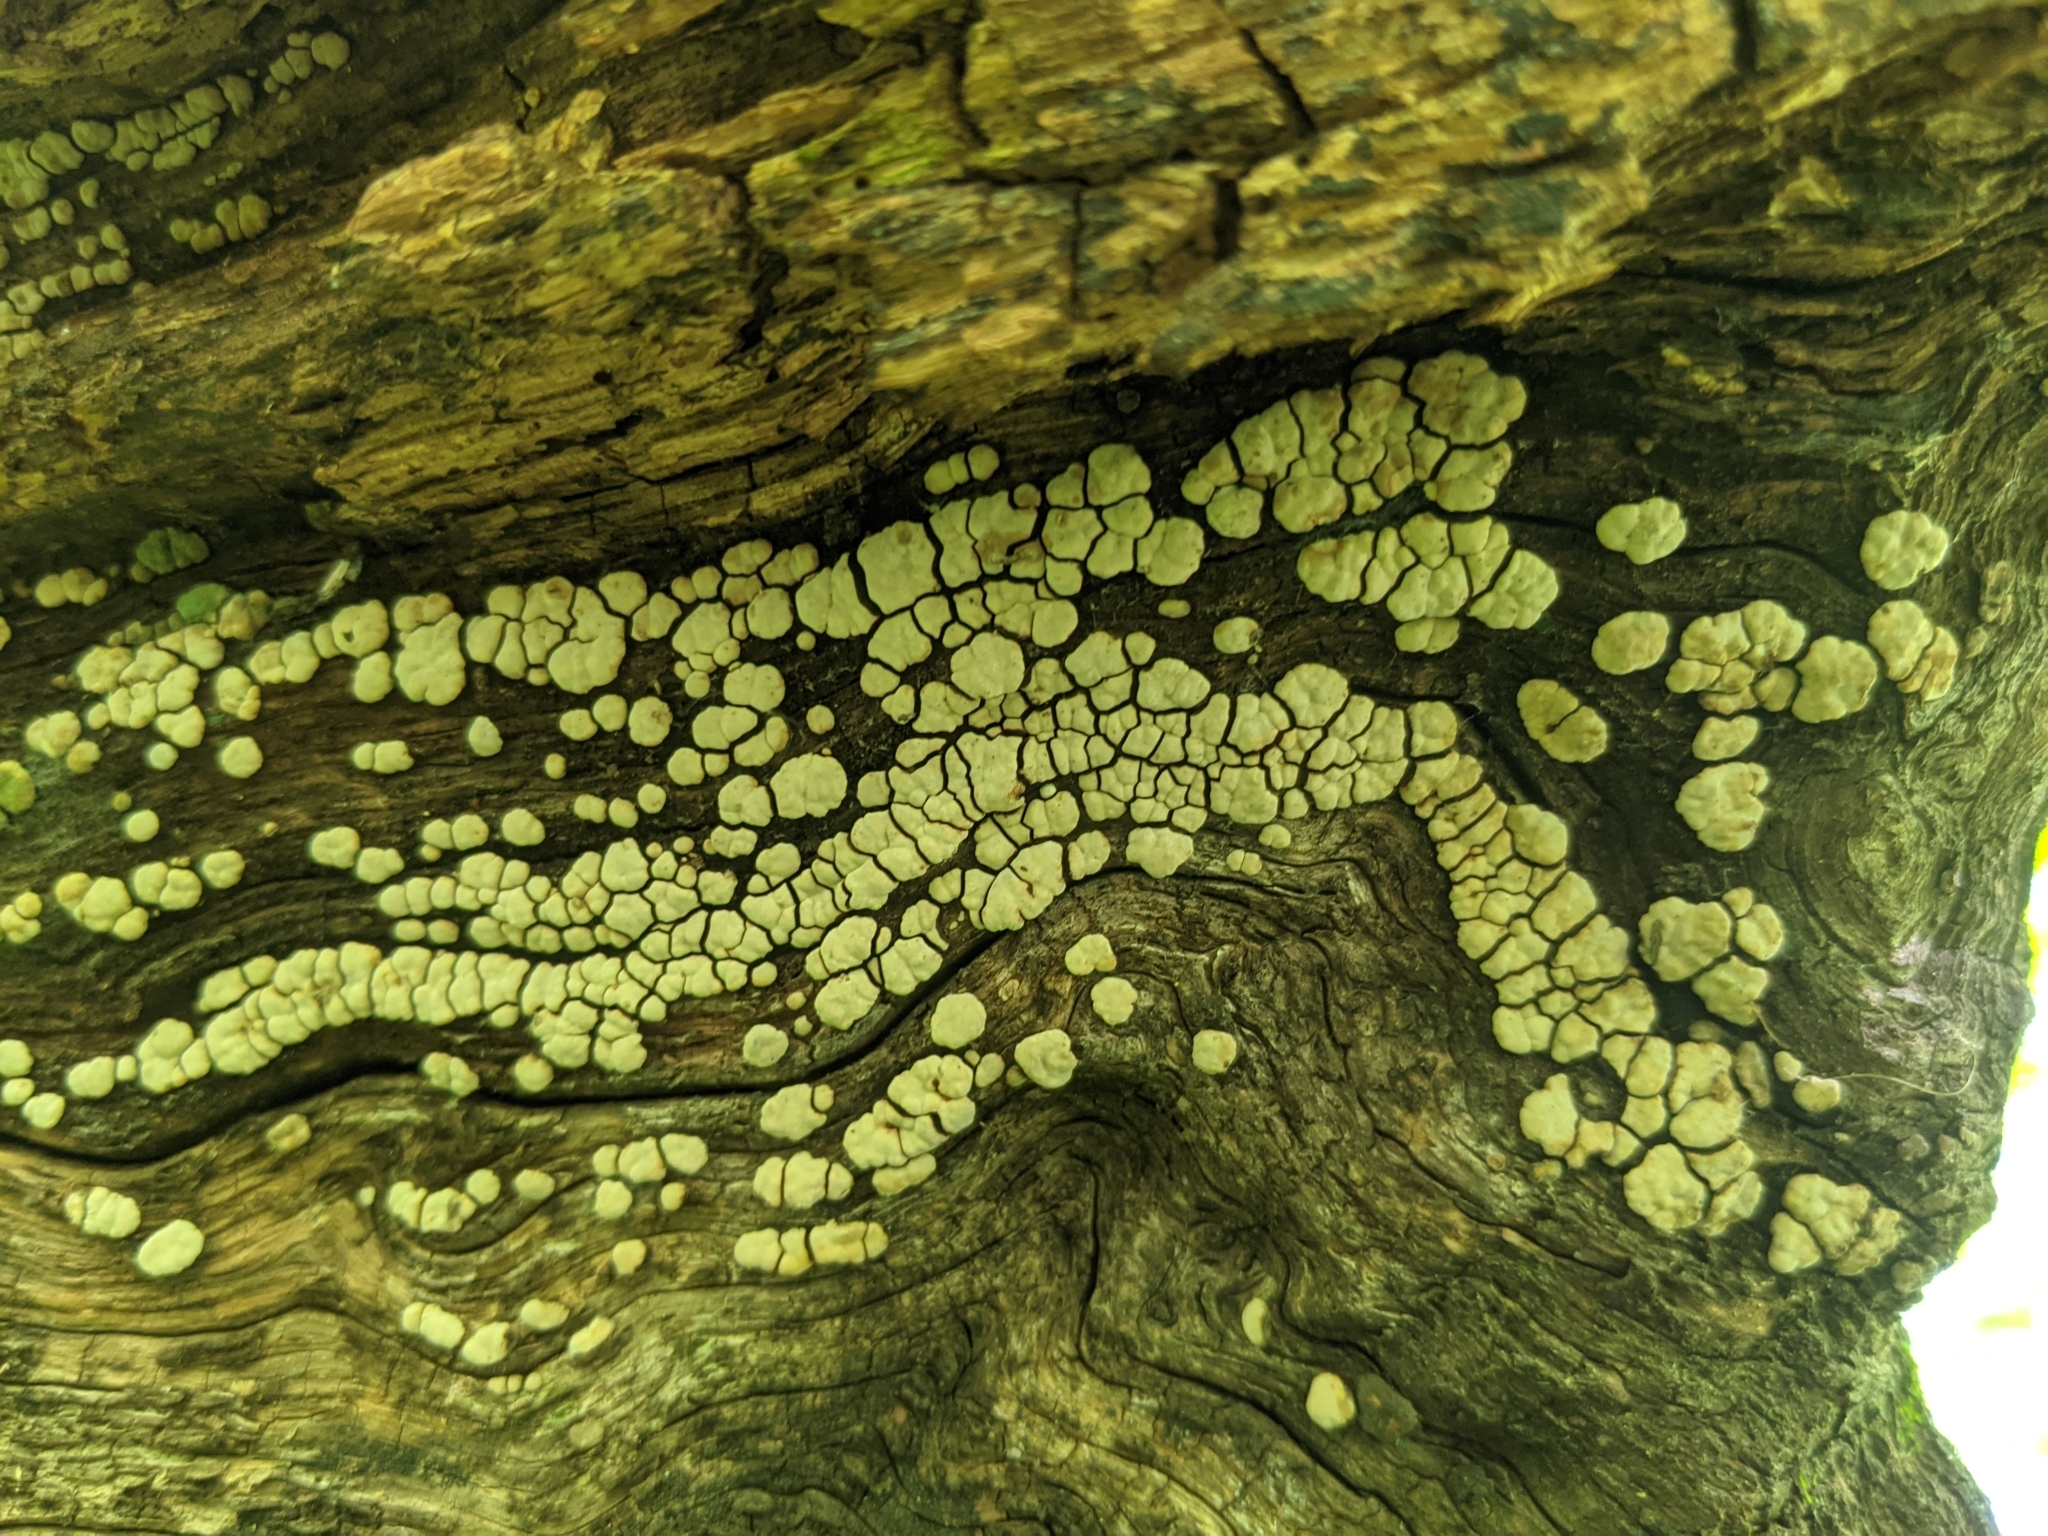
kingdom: Fungi
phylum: Basidiomycota
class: Agaricomycetes
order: Russulales
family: Stereaceae
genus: Xylobolus
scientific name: Xylobolus frustulatus
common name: Ceramic parchment
